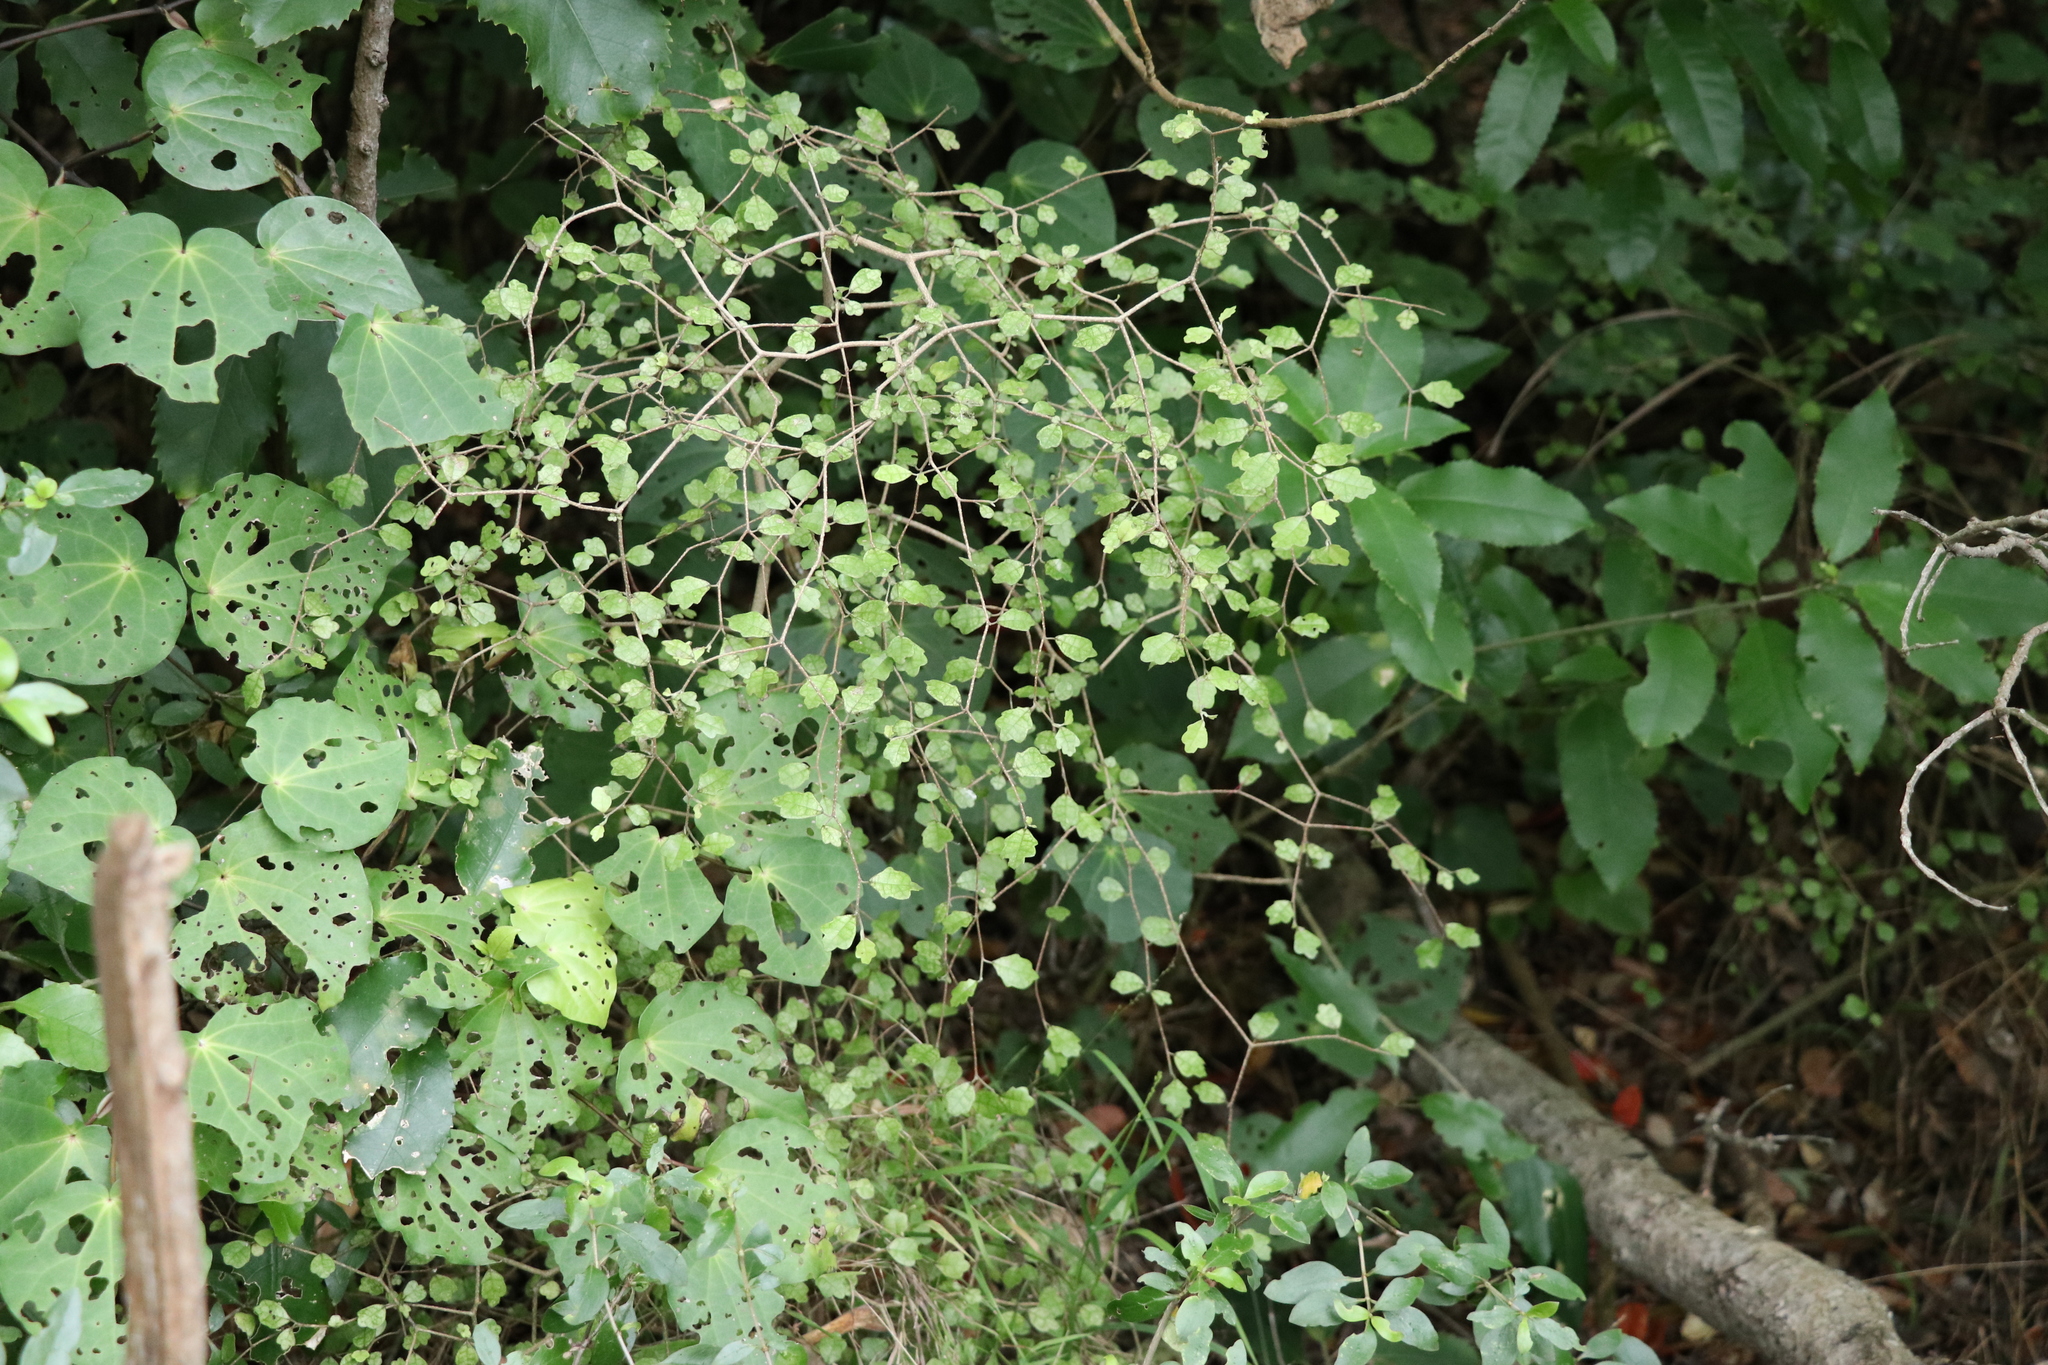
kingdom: Plantae
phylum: Tracheophyta
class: Magnoliopsida
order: Apiales
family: Pennantiaceae
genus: Pennantia
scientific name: Pennantia corymbosa
